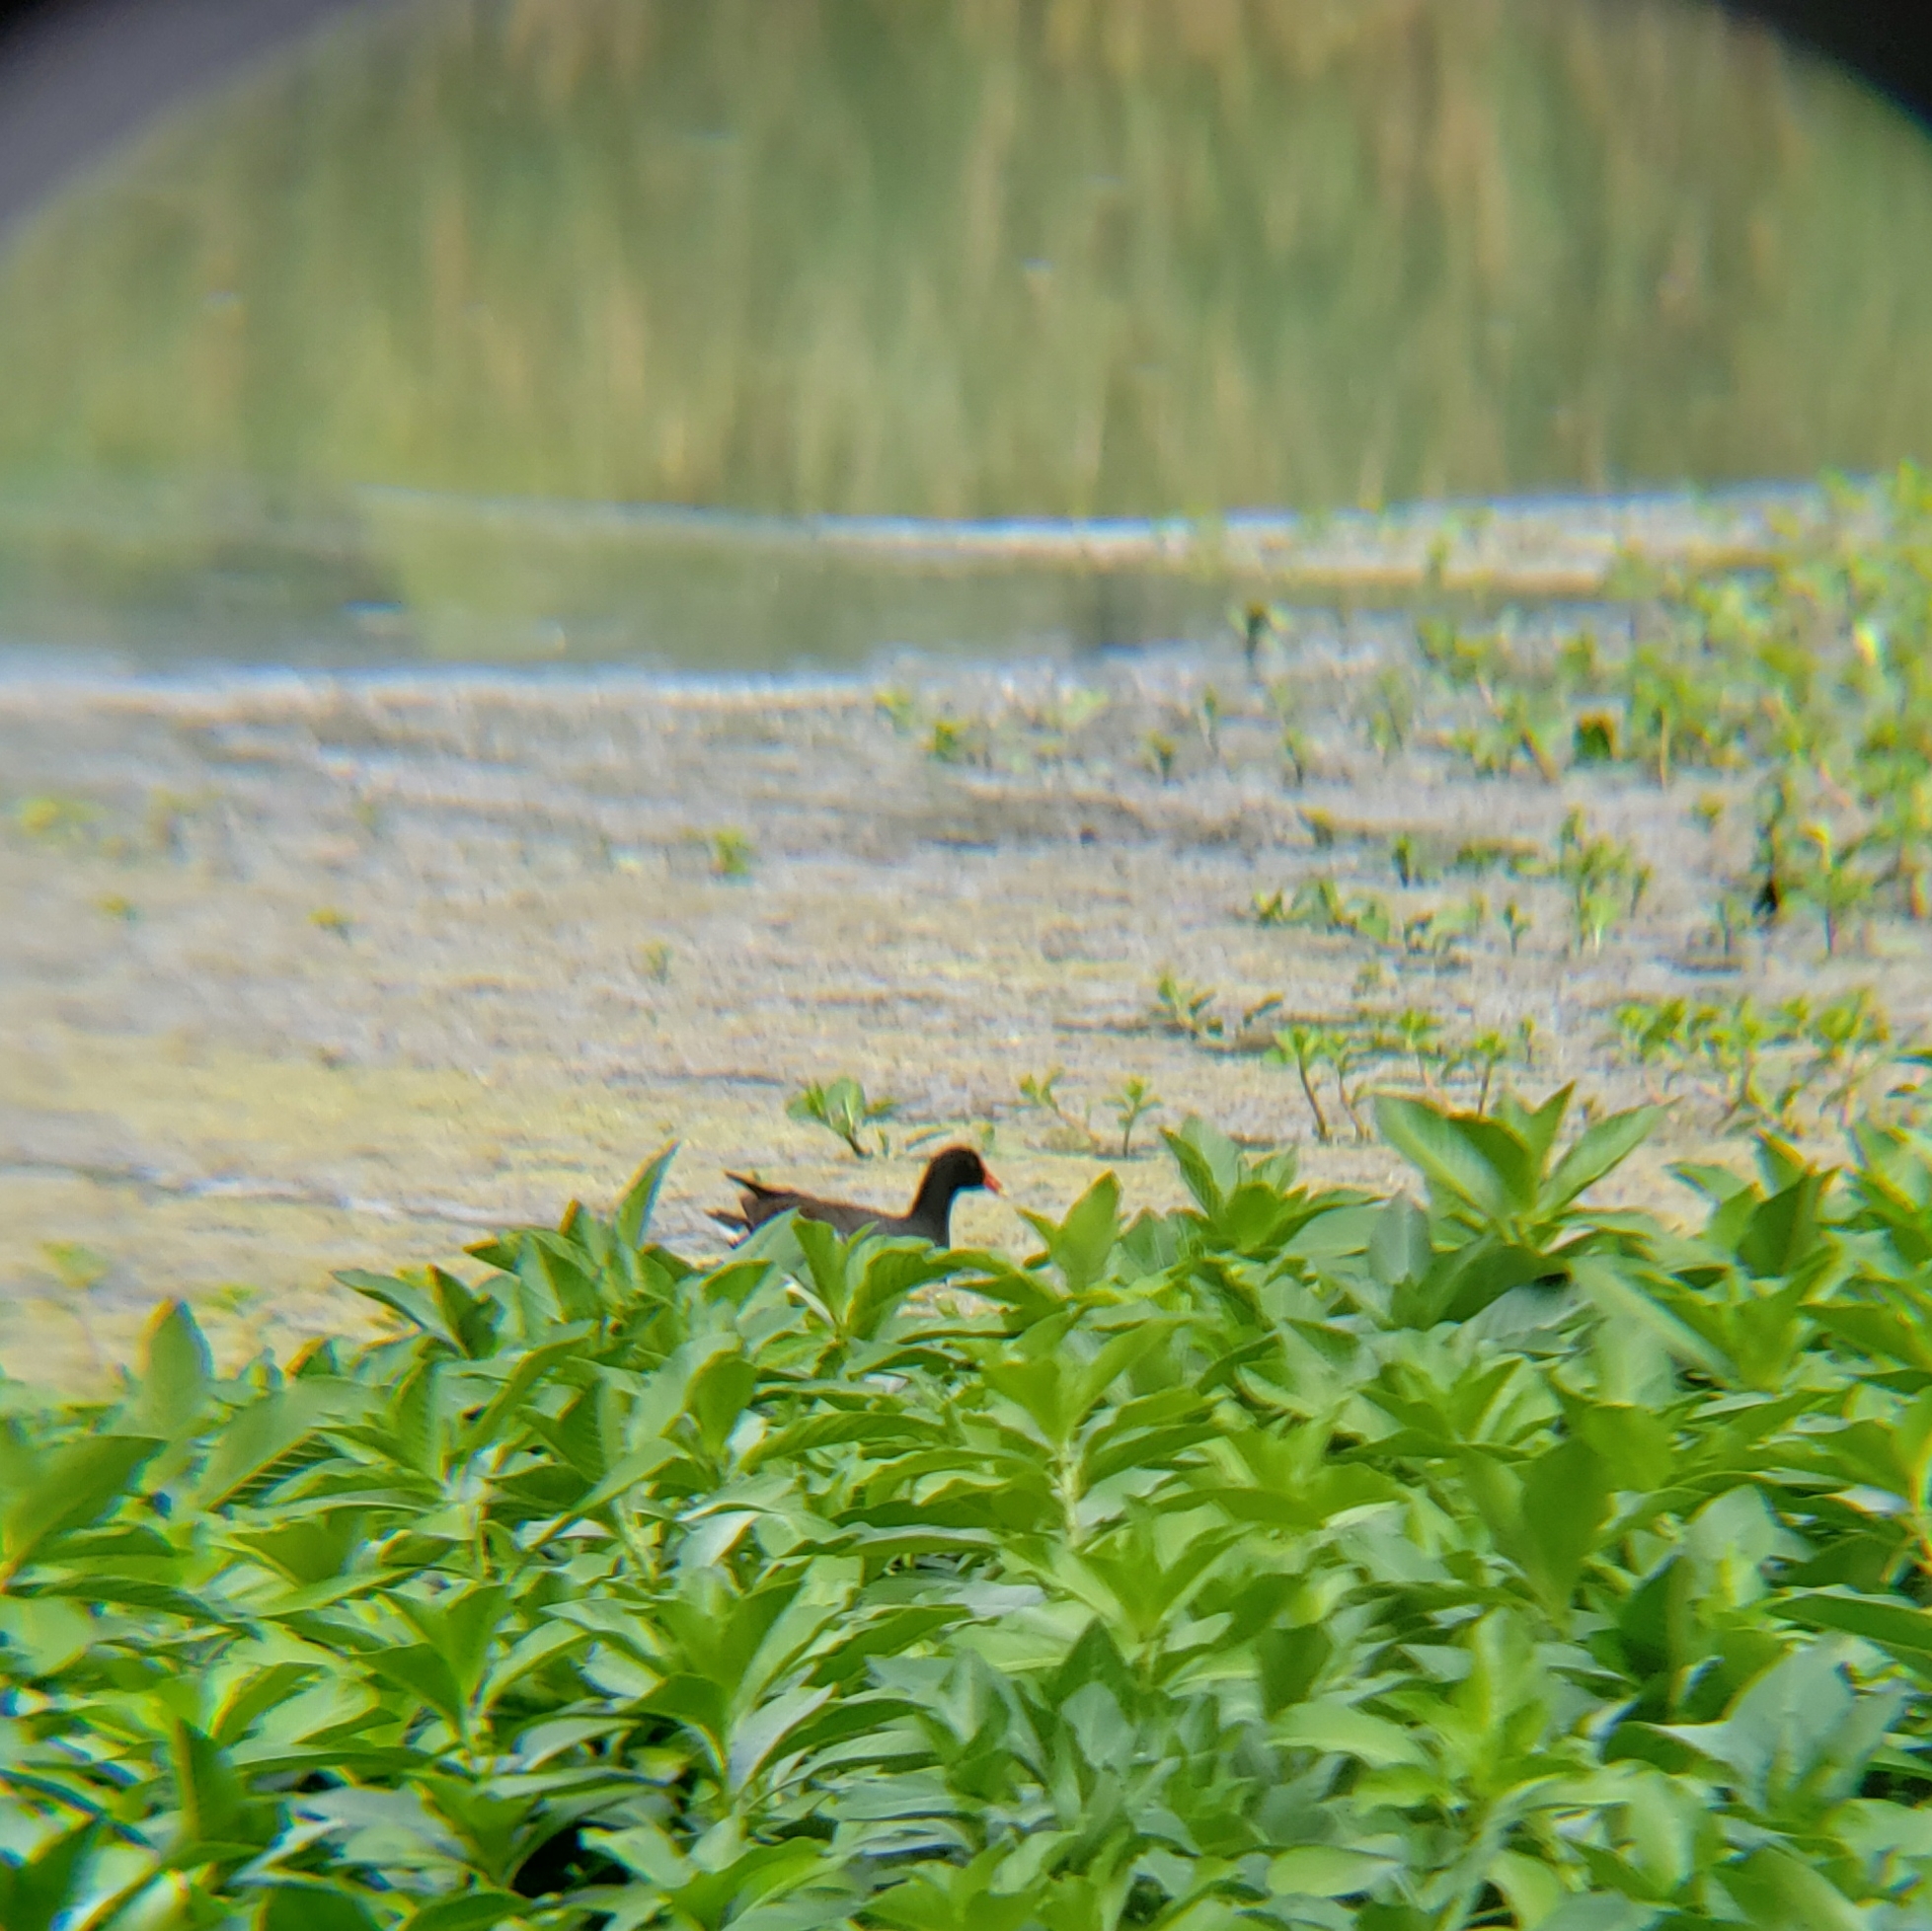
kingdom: Animalia
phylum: Chordata
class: Aves
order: Gruiformes
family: Rallidae
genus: Gallinula
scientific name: Gallinula chloropus
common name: Common moorhen
